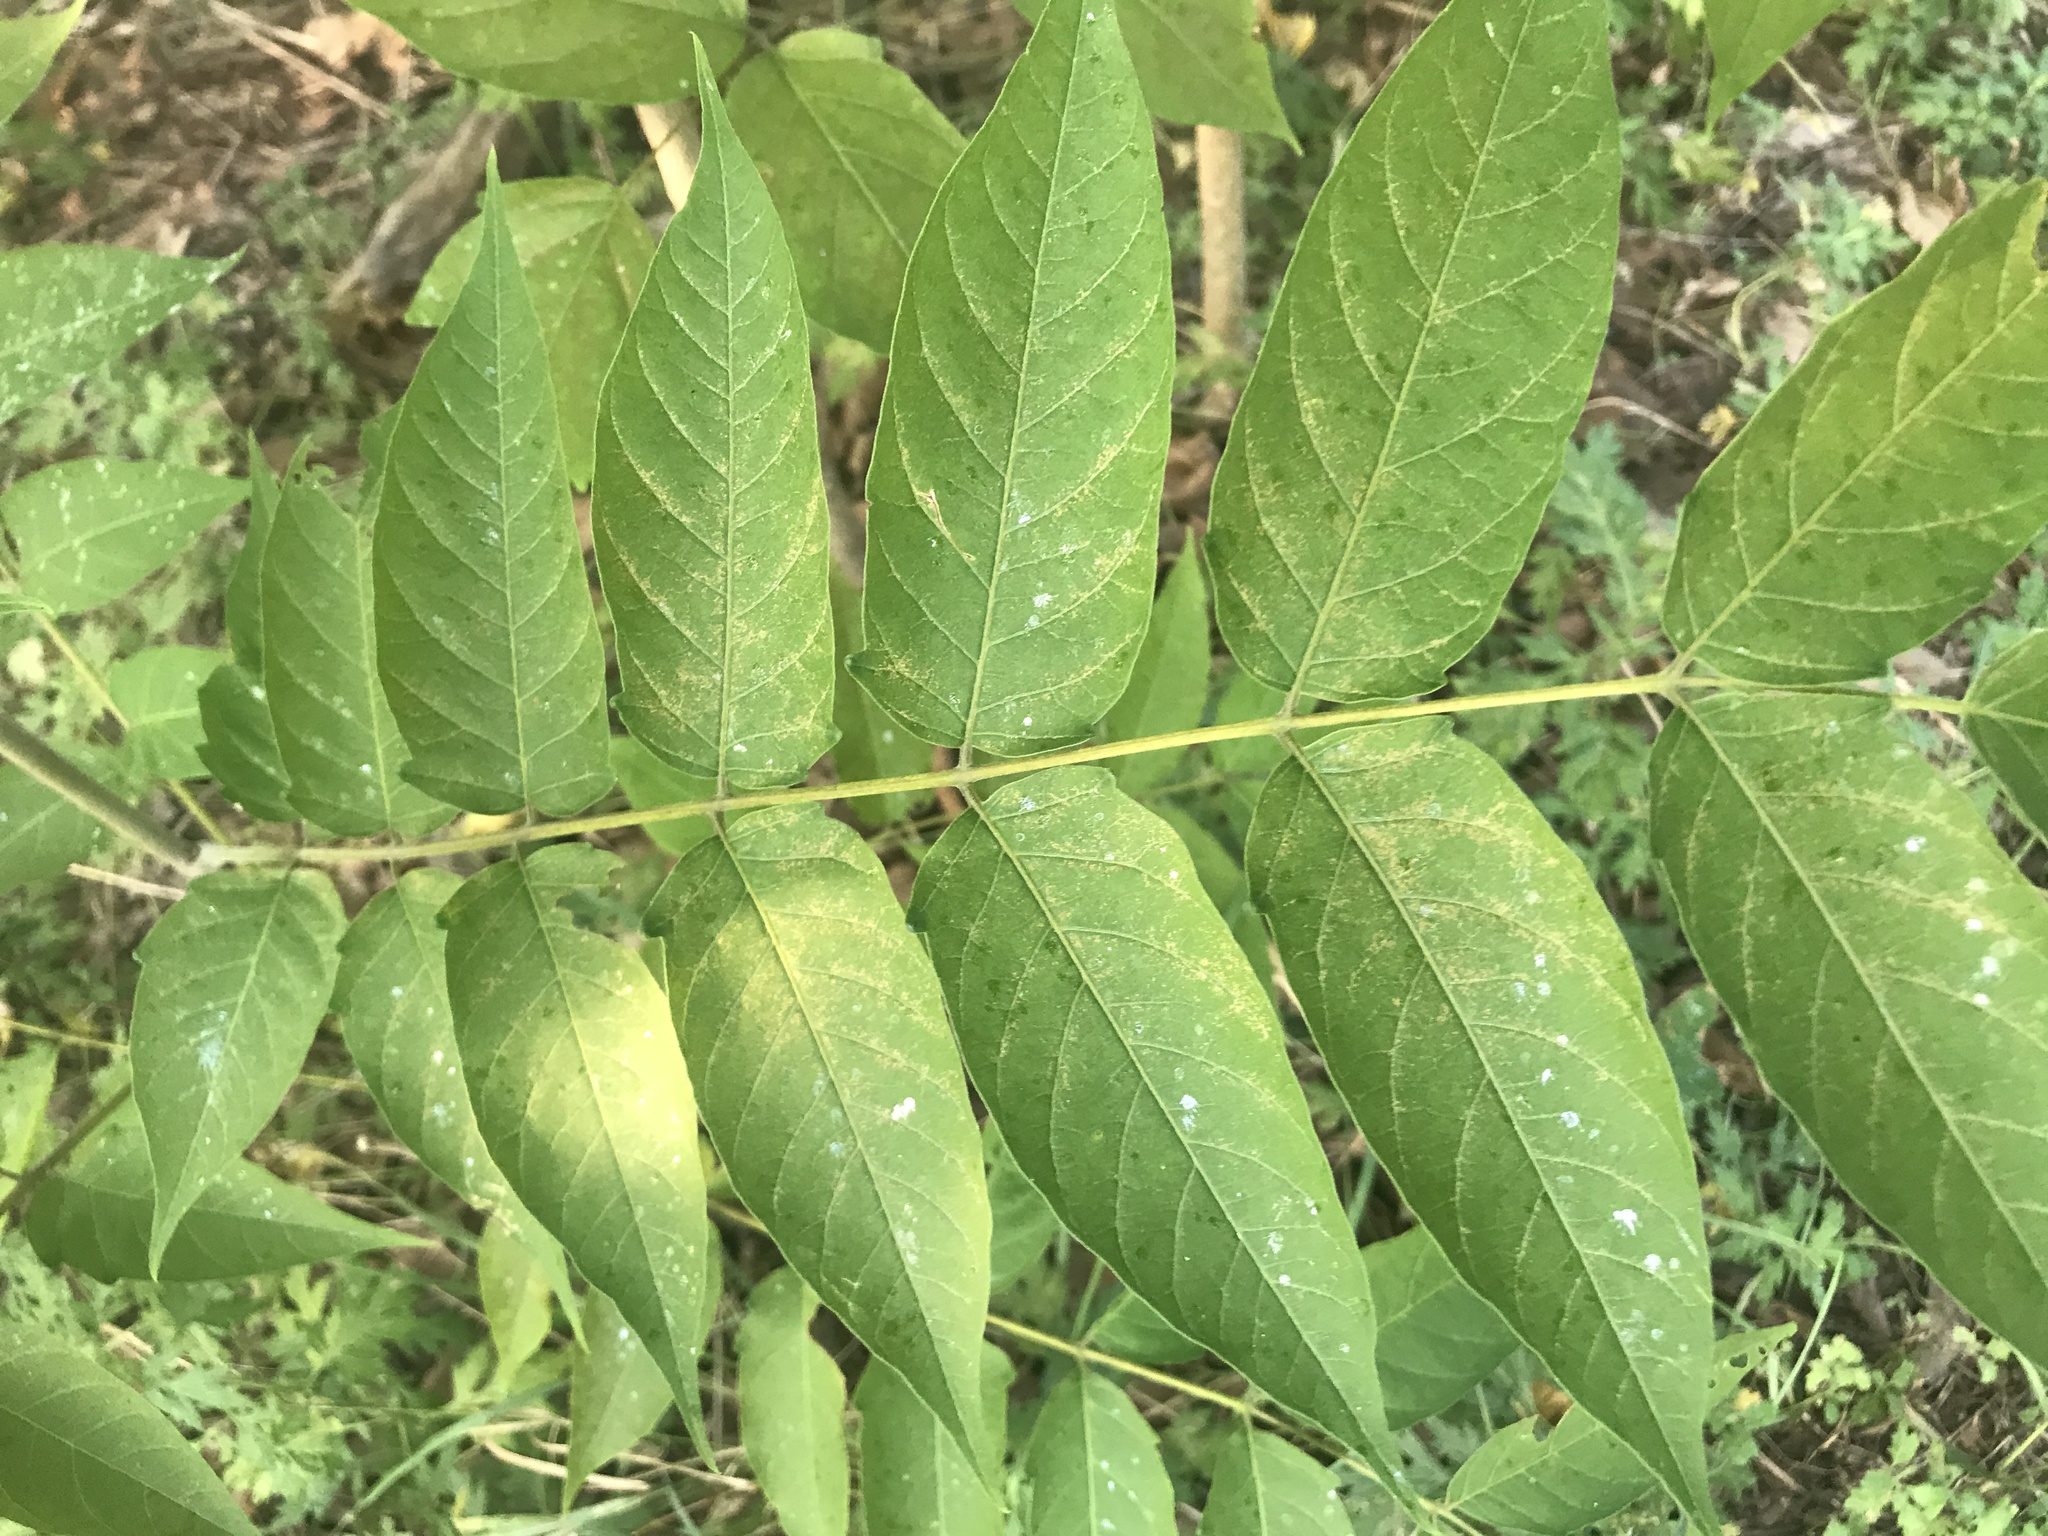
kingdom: Plantae
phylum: Tracheophyta
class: Magnoliopsida
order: Sapindales
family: Simaroubaceae
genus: Ailanthus
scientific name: Ailanthus altissima
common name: Tree-of-heaven
